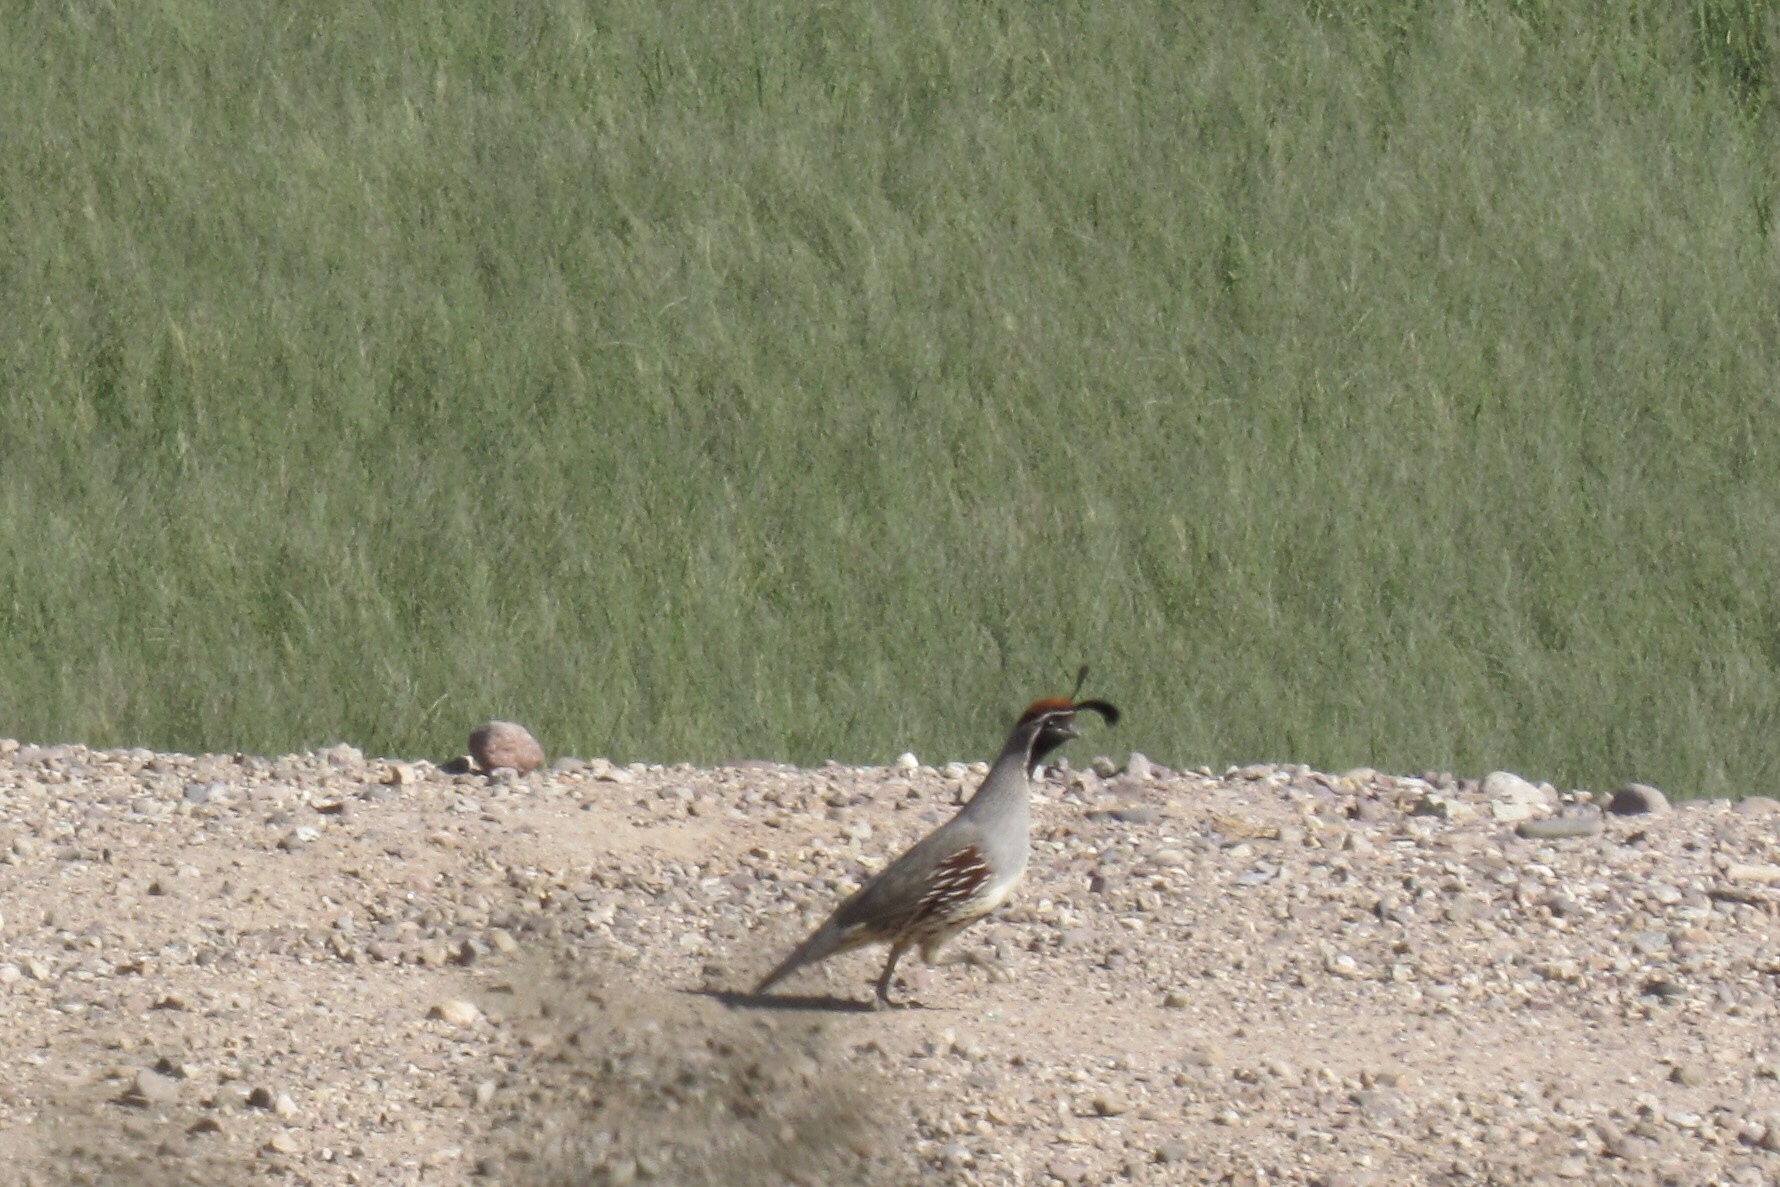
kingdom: Animalia
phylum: Chordata
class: Aves
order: Galliformes
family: Odontophoridae
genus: Callipepla
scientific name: Callipepla gambelii
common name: Gambel's quail
